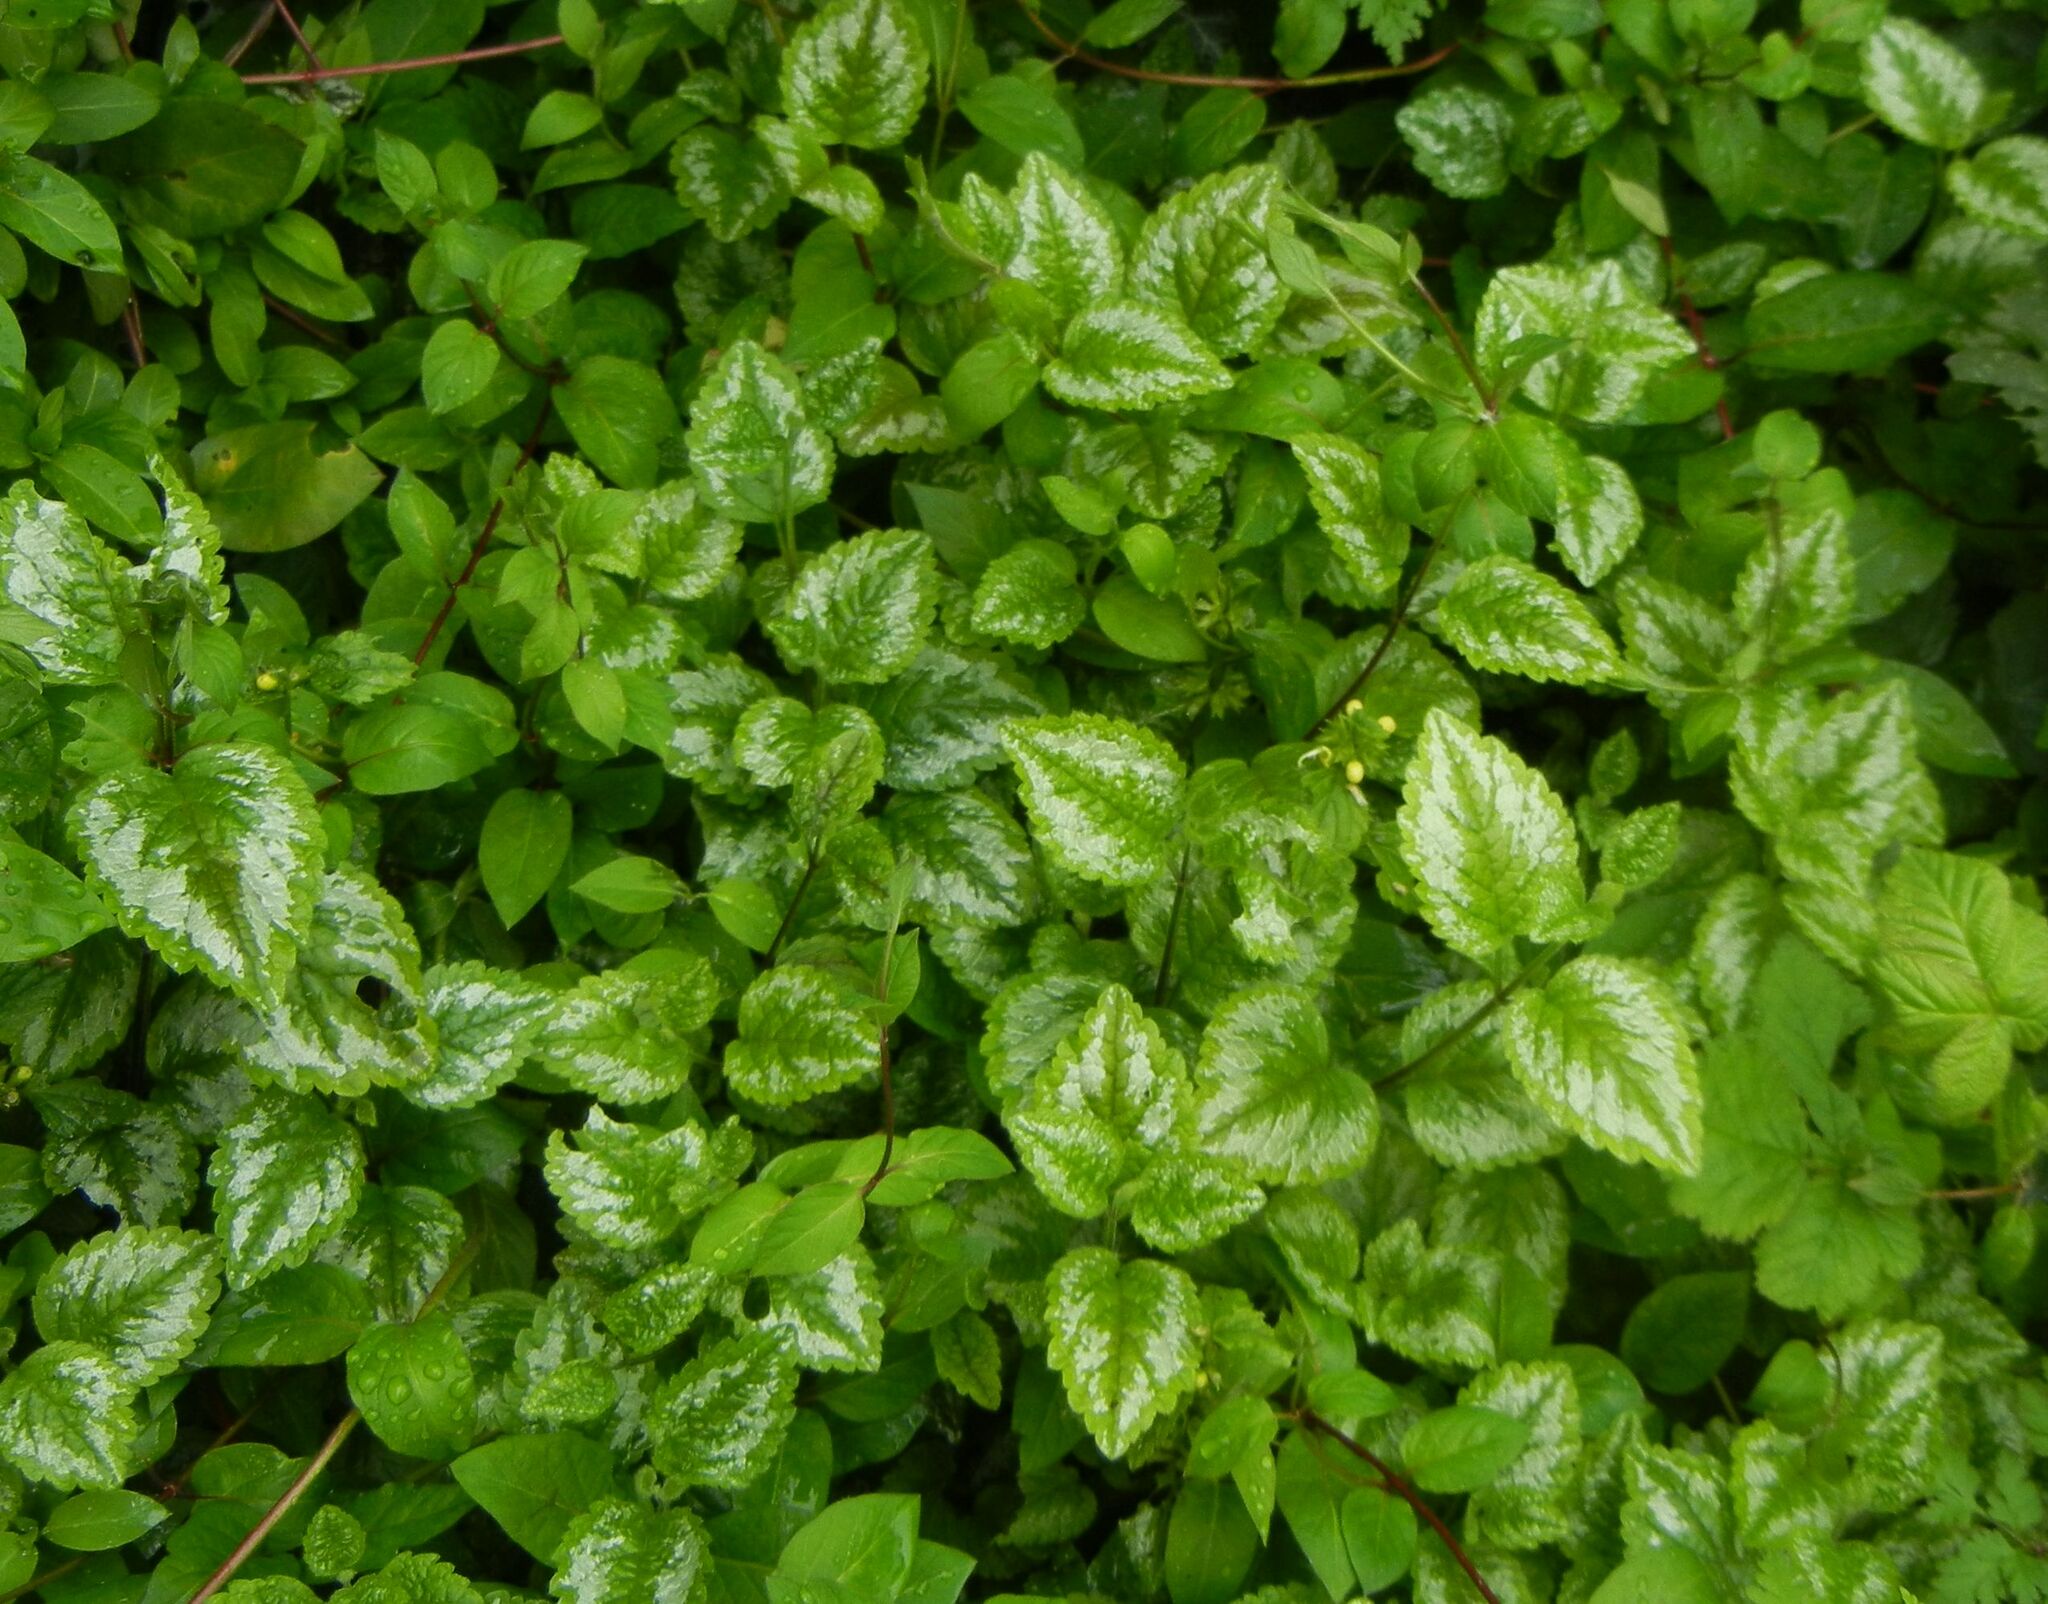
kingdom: Plantae
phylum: Tracheophyta
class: Magnoliopsida
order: Lamiales
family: Lamiaceae
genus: Lamium
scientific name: Lamium galeobdolon
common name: Yellow archangel
